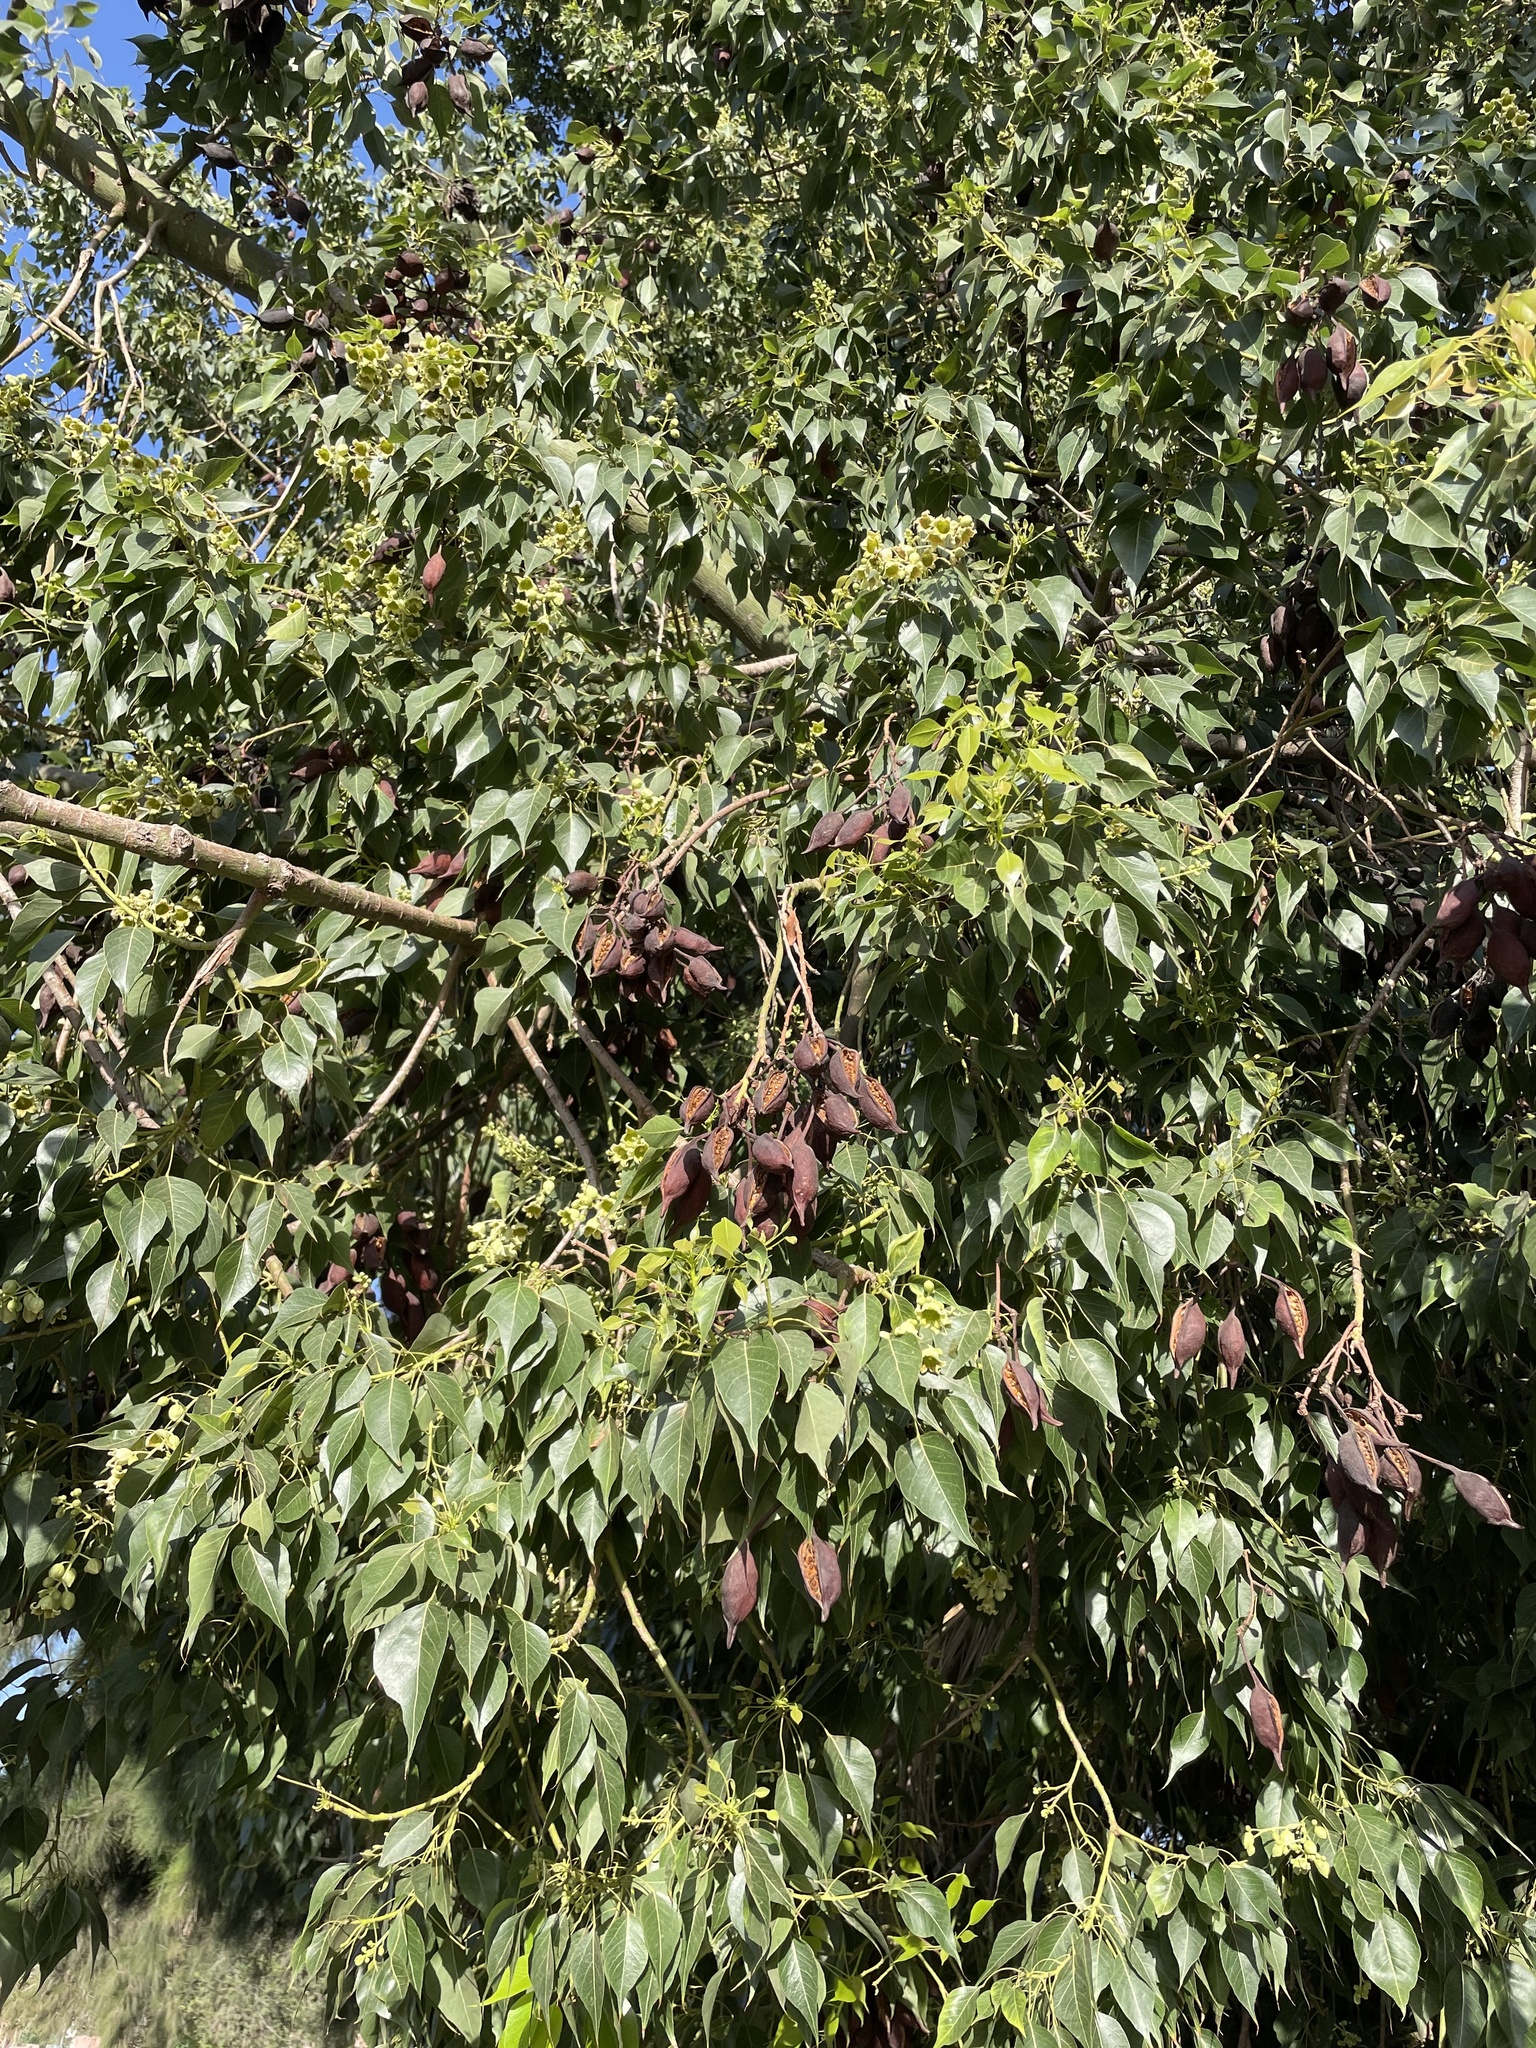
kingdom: Plantae
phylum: Tracheophyta
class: Magnoliopsida
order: Malvales
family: Malvaceae
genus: Brachychiton
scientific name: Brachychiton populneus
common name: Kurrajong
